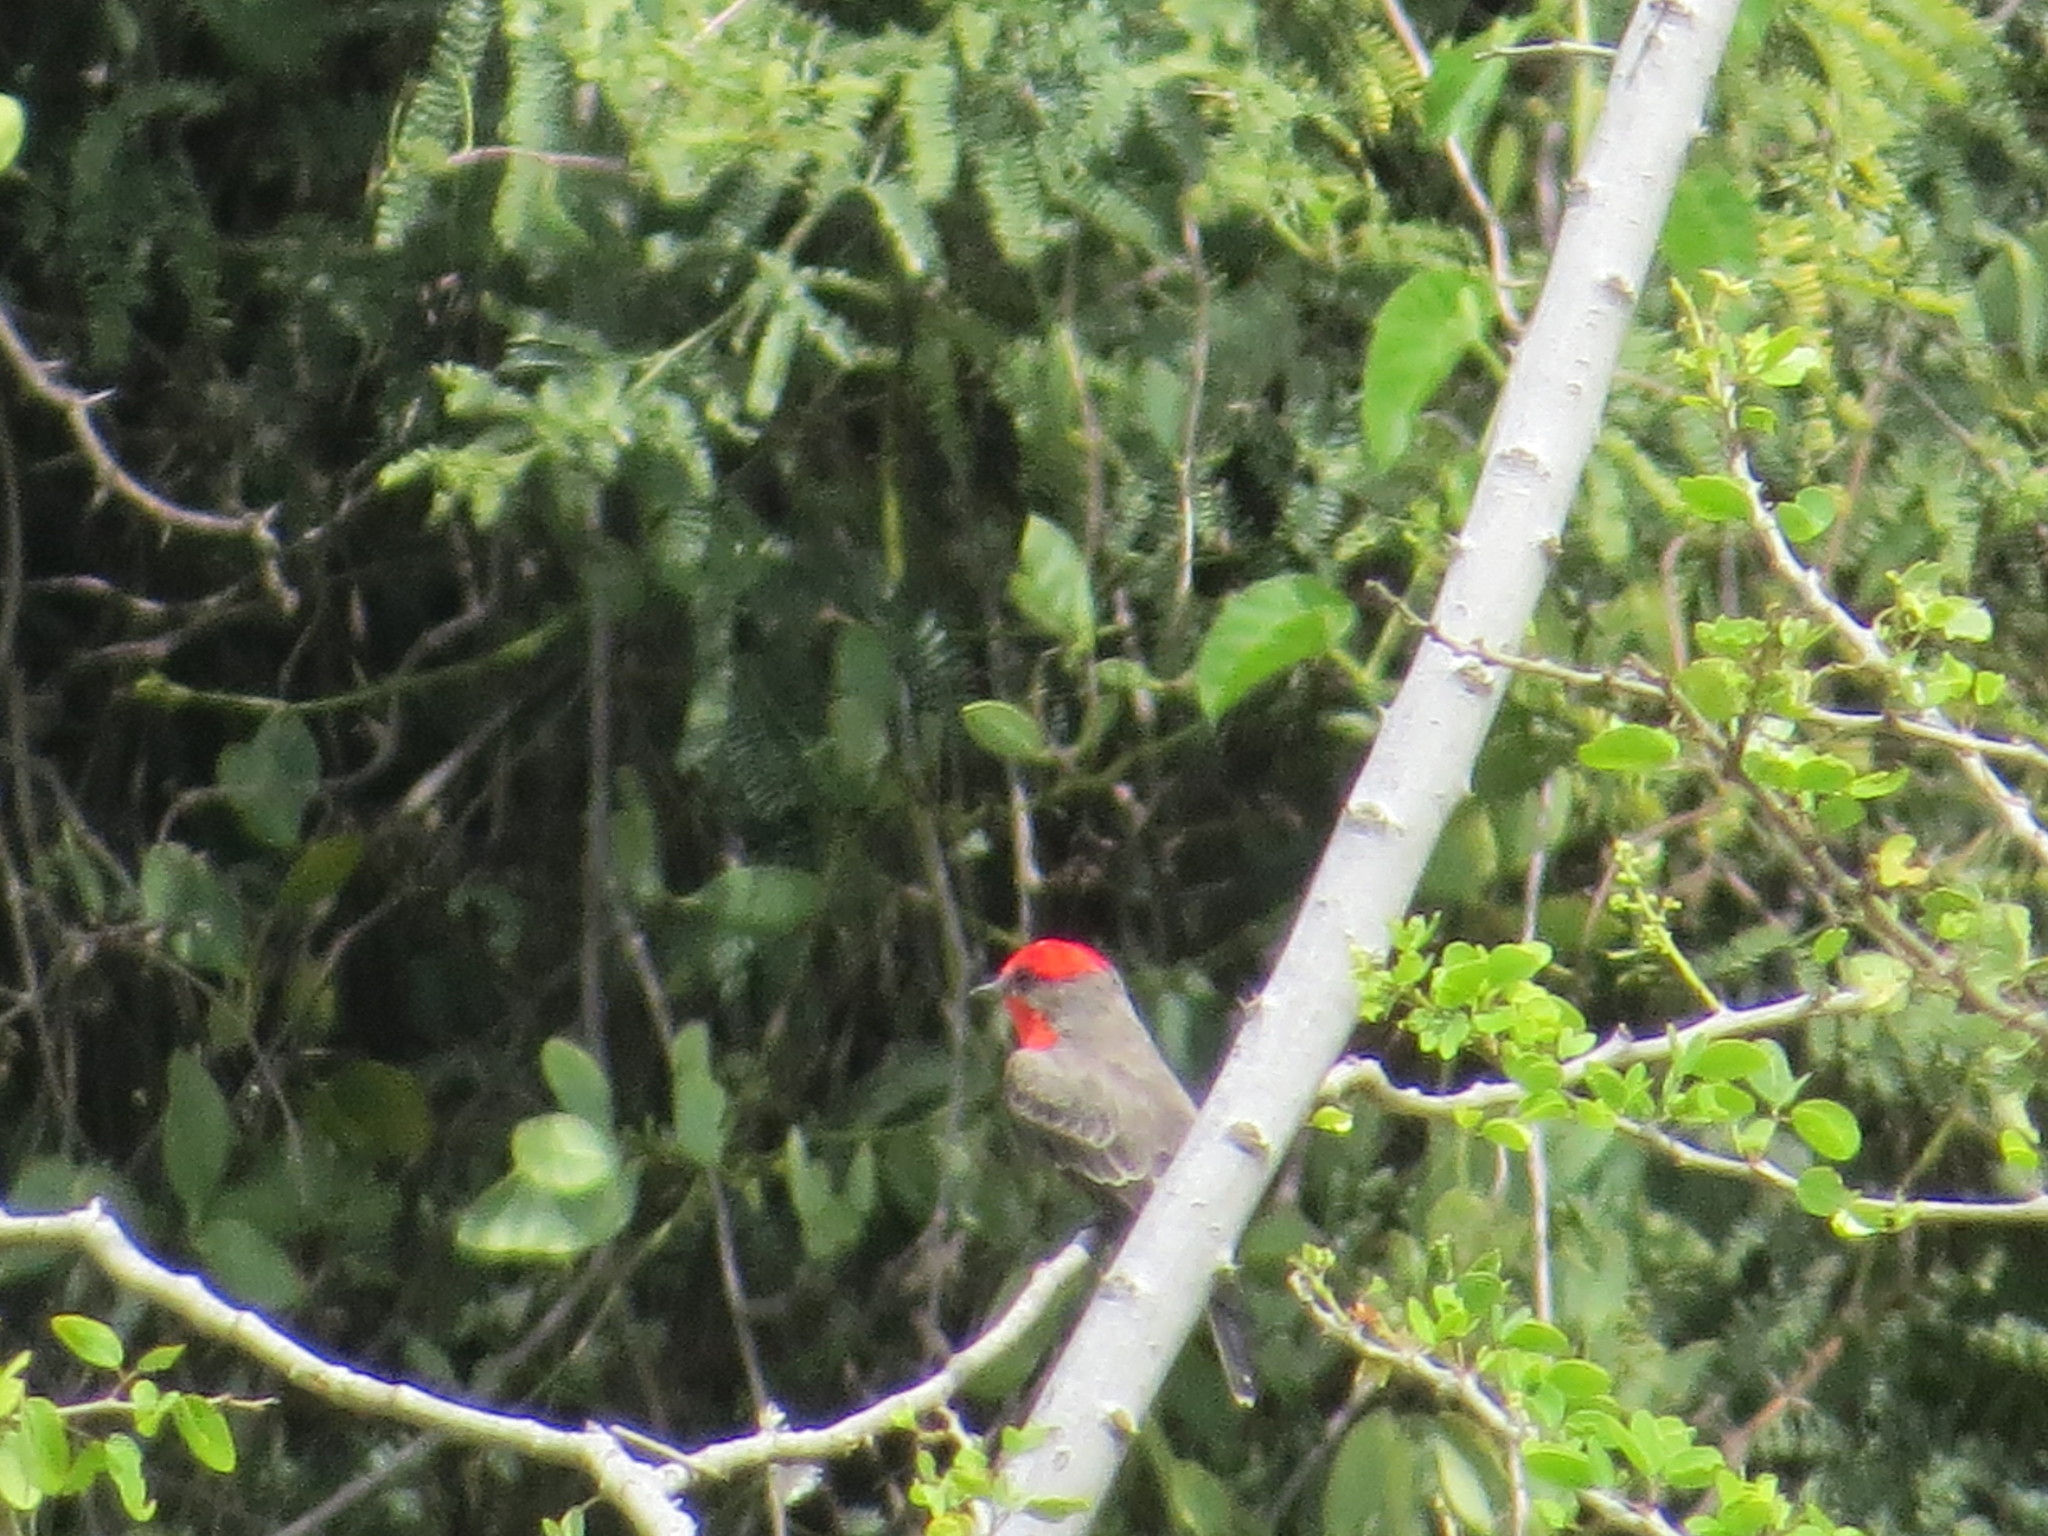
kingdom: Animalia
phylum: Chordata
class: Aves
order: Passeriformes
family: Tyrannidae
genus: Pyrocephalus
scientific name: Pyrocephalus rubinus
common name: Vermilion flycatcher
